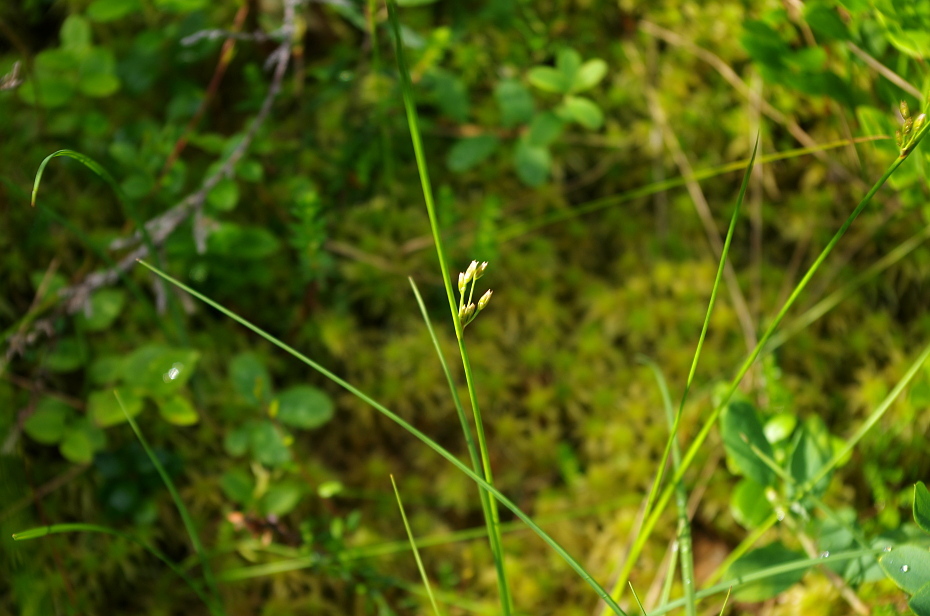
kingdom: Plantae
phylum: Tracheophyta
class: Liliopsida
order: Poales
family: Juncaceae
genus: Juncus
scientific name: Juncus filiformis
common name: Thread rush
